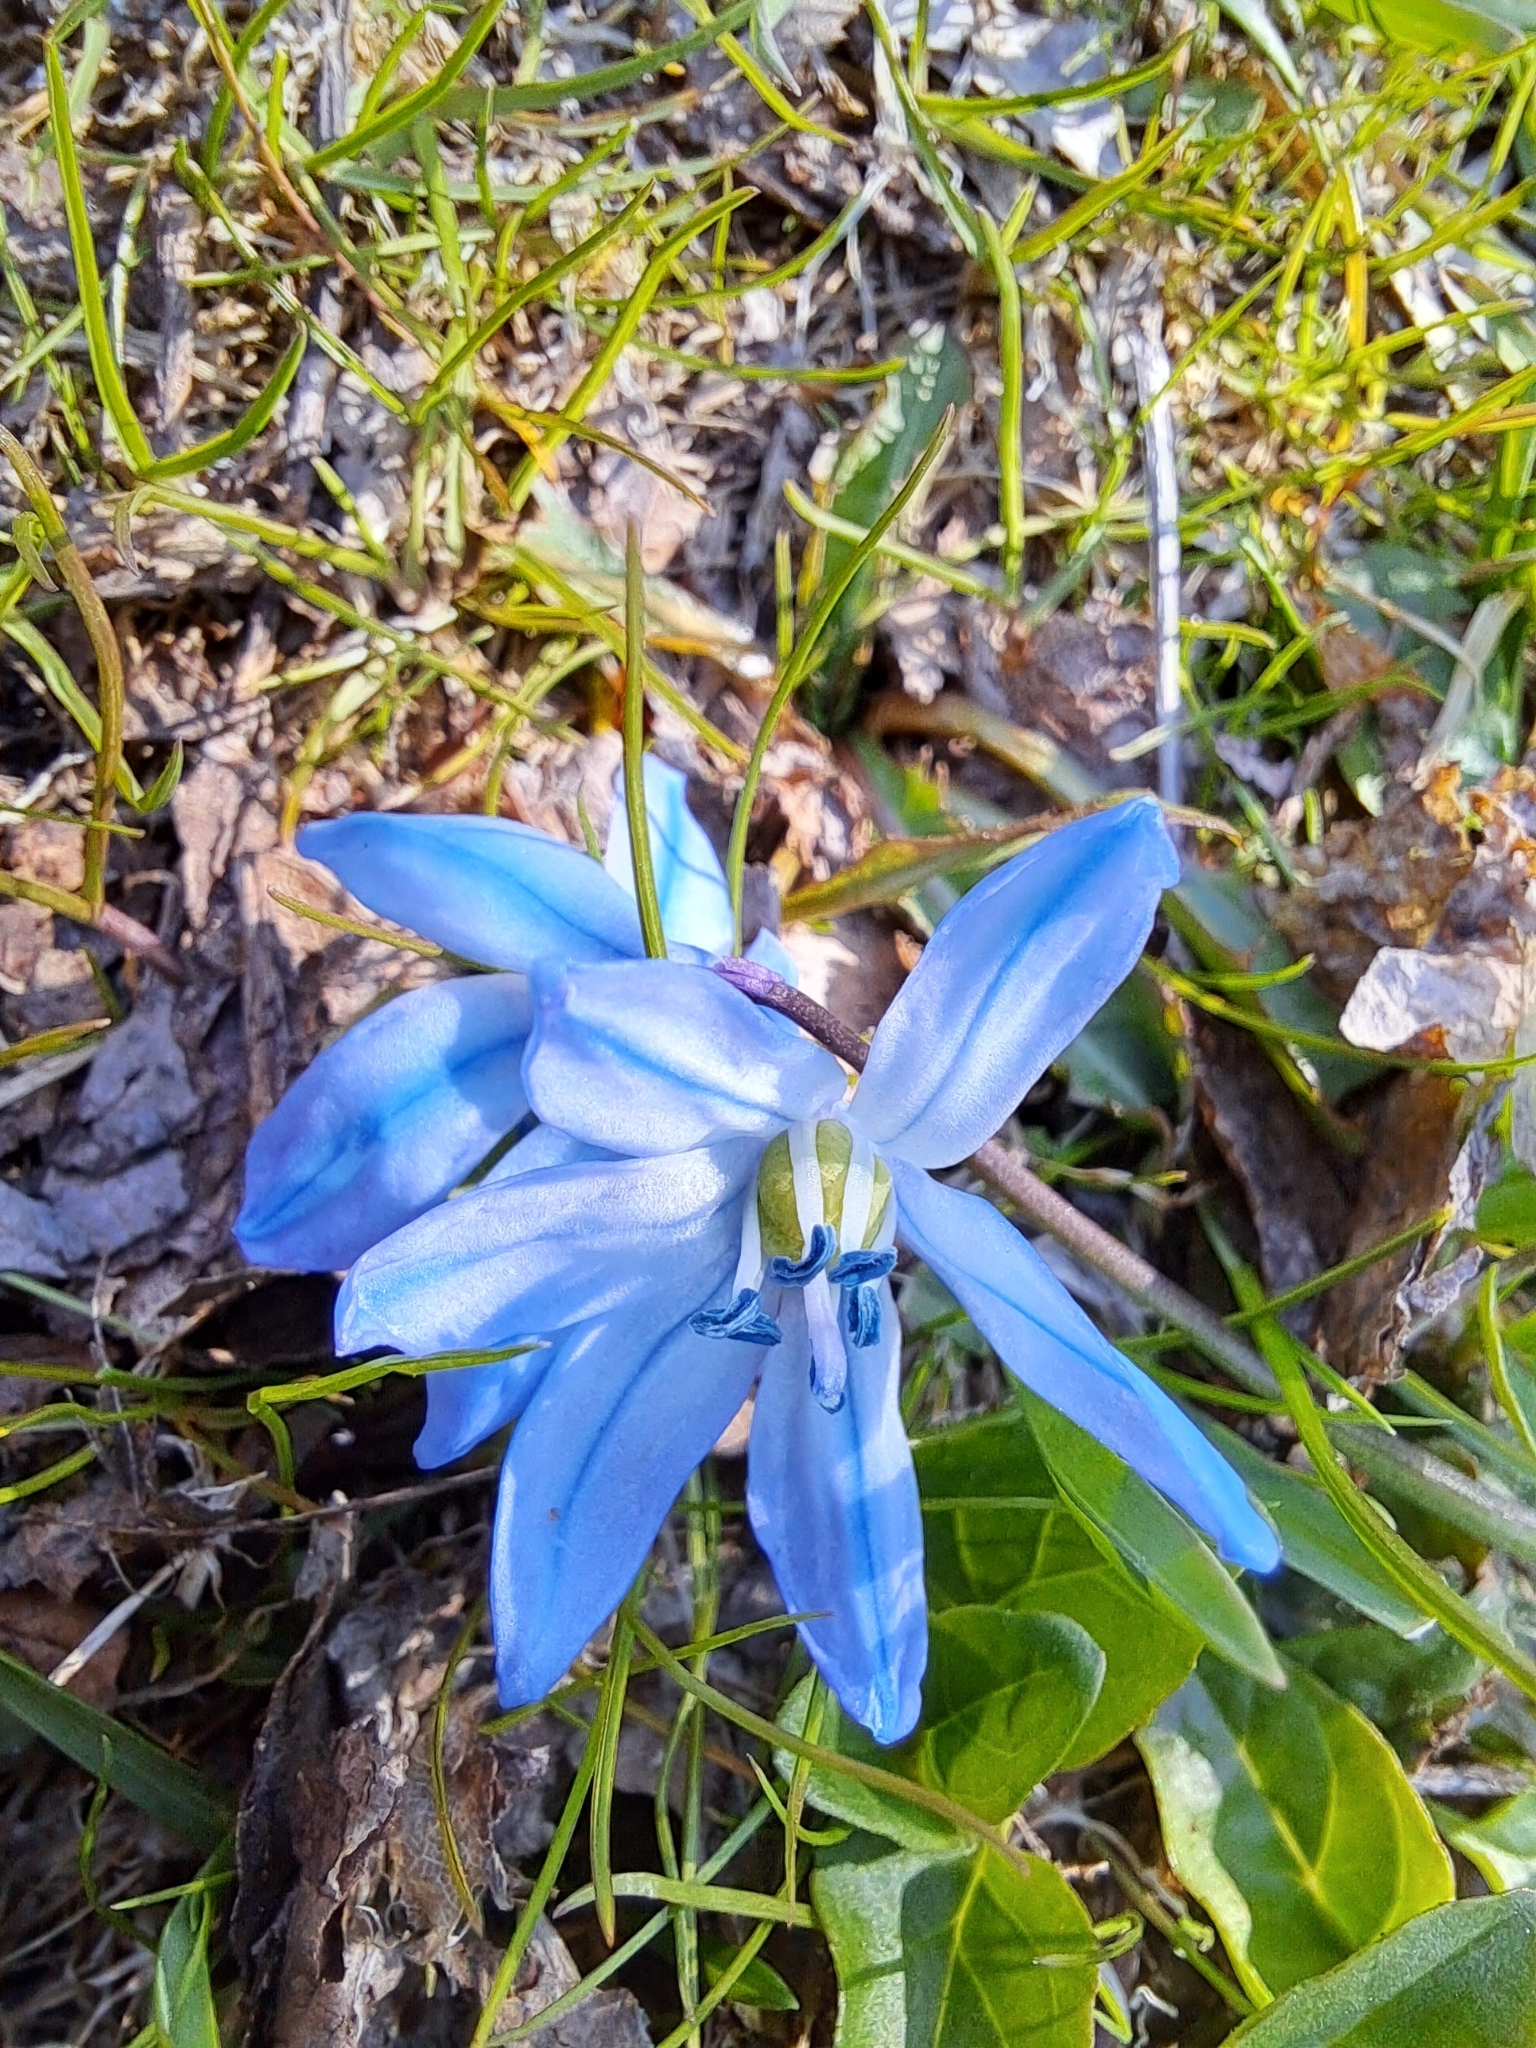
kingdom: Plantae
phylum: Tracheophyta
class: Liliopsida
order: Asparagales
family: Asparagaceae
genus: Scilla
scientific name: Scilla siberica
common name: Siberian squill
